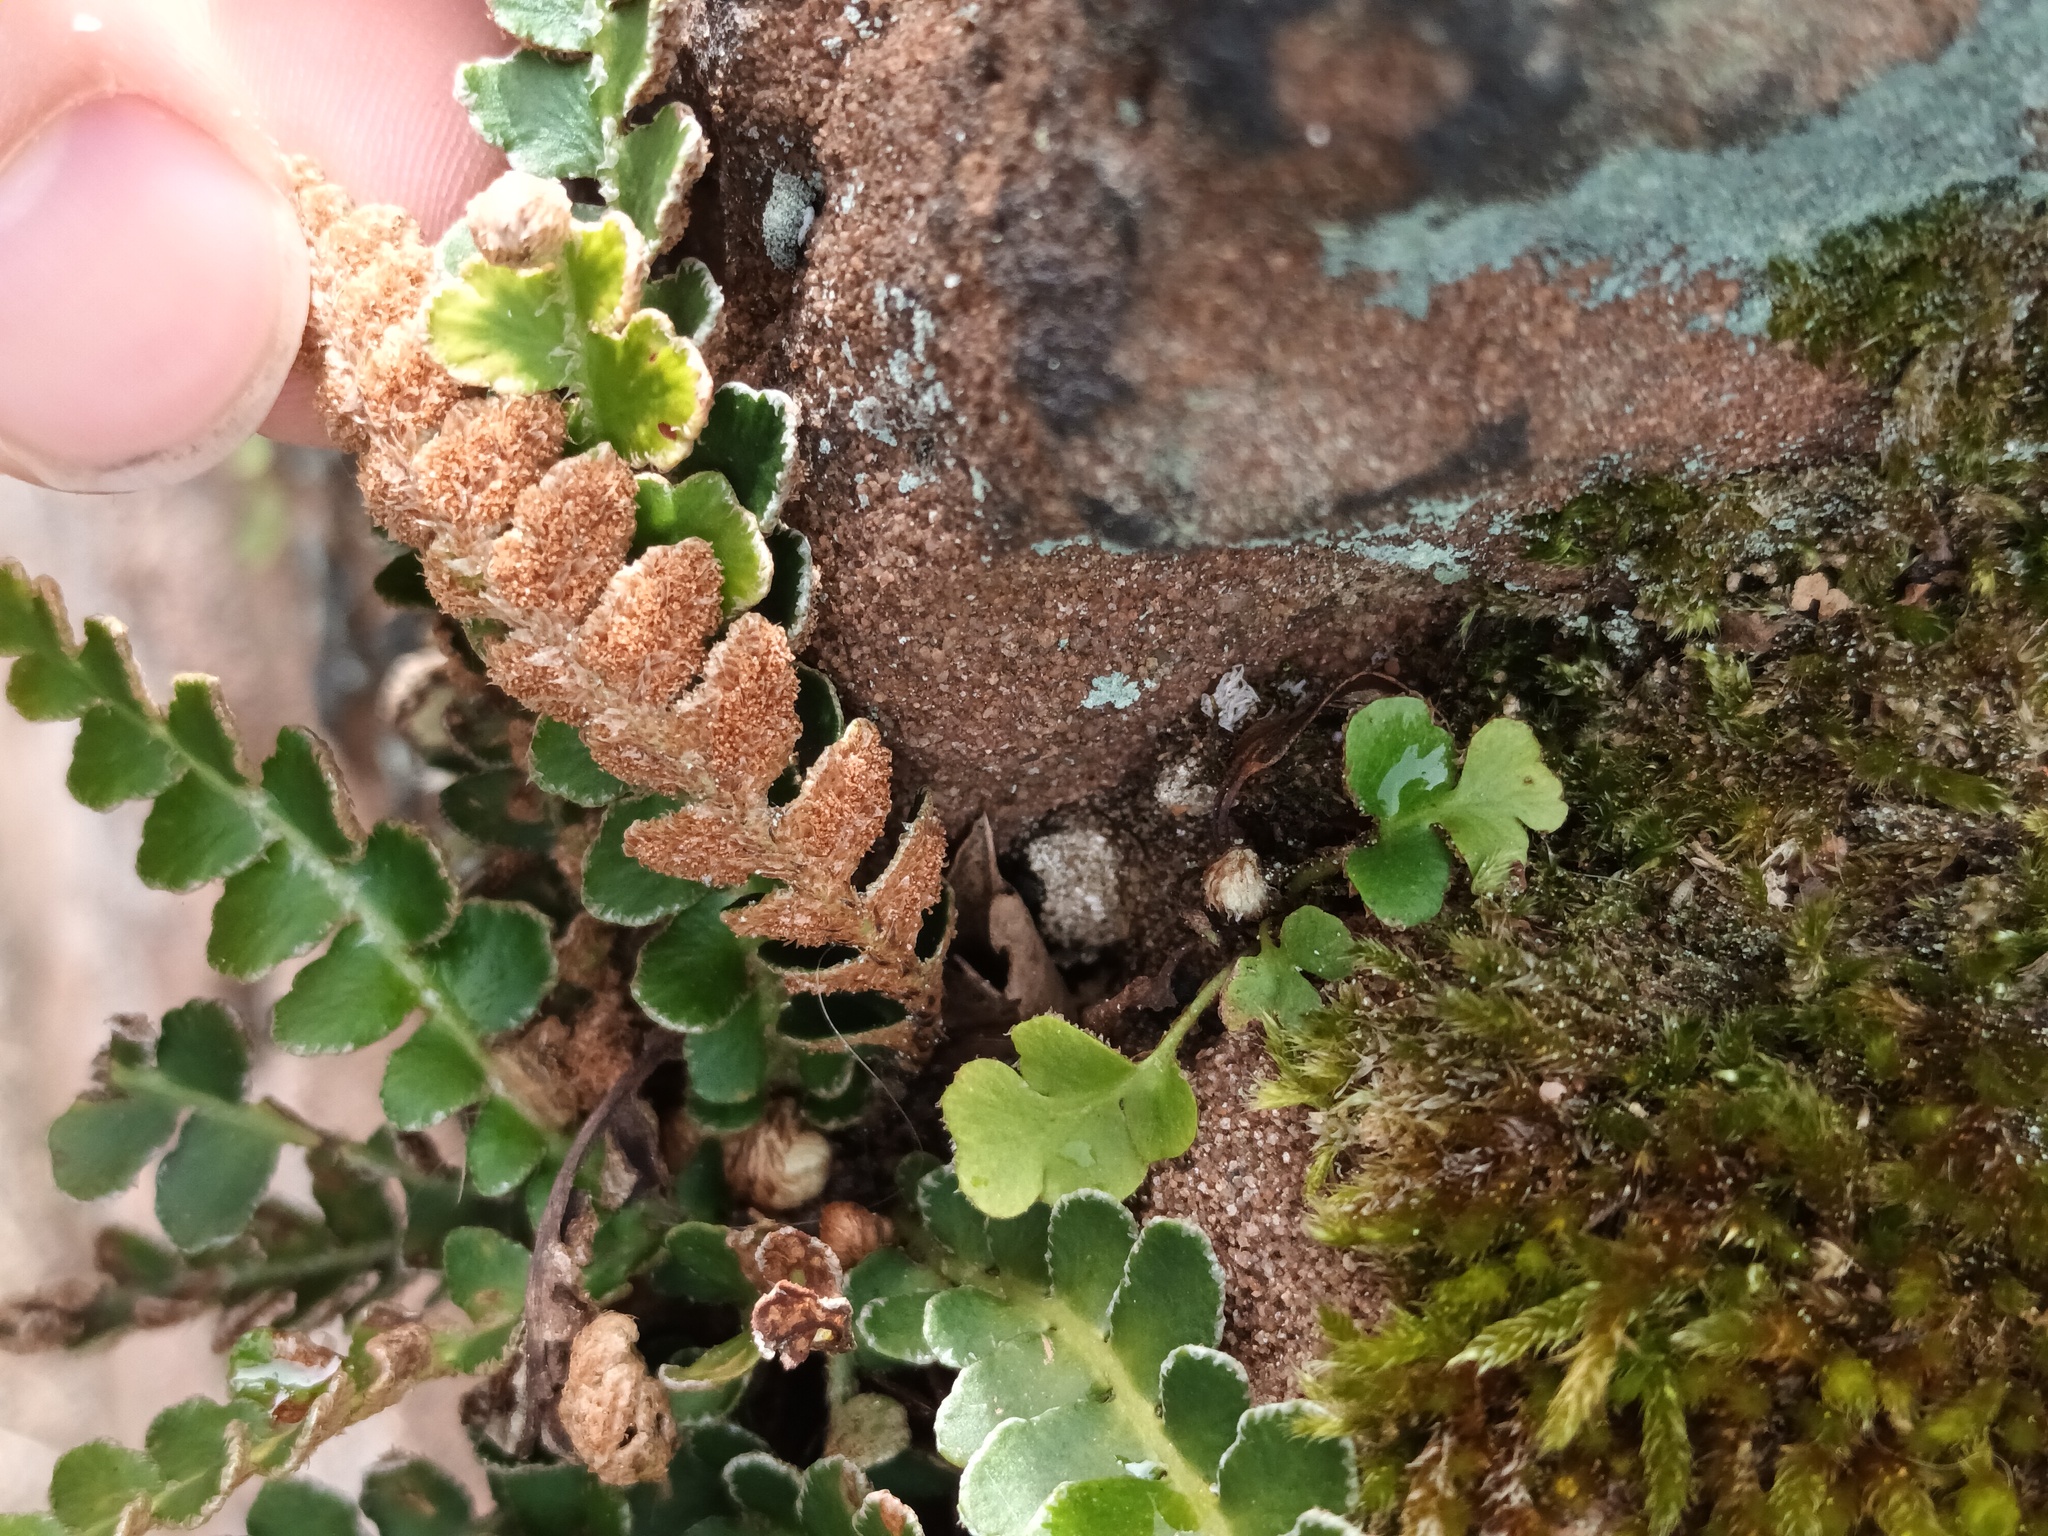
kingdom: Plantae
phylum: Tracheophyta
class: Polypodiopsida
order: Polypodiales
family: Aspleniaceae
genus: Asplenium
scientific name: Asplenium ceterach
